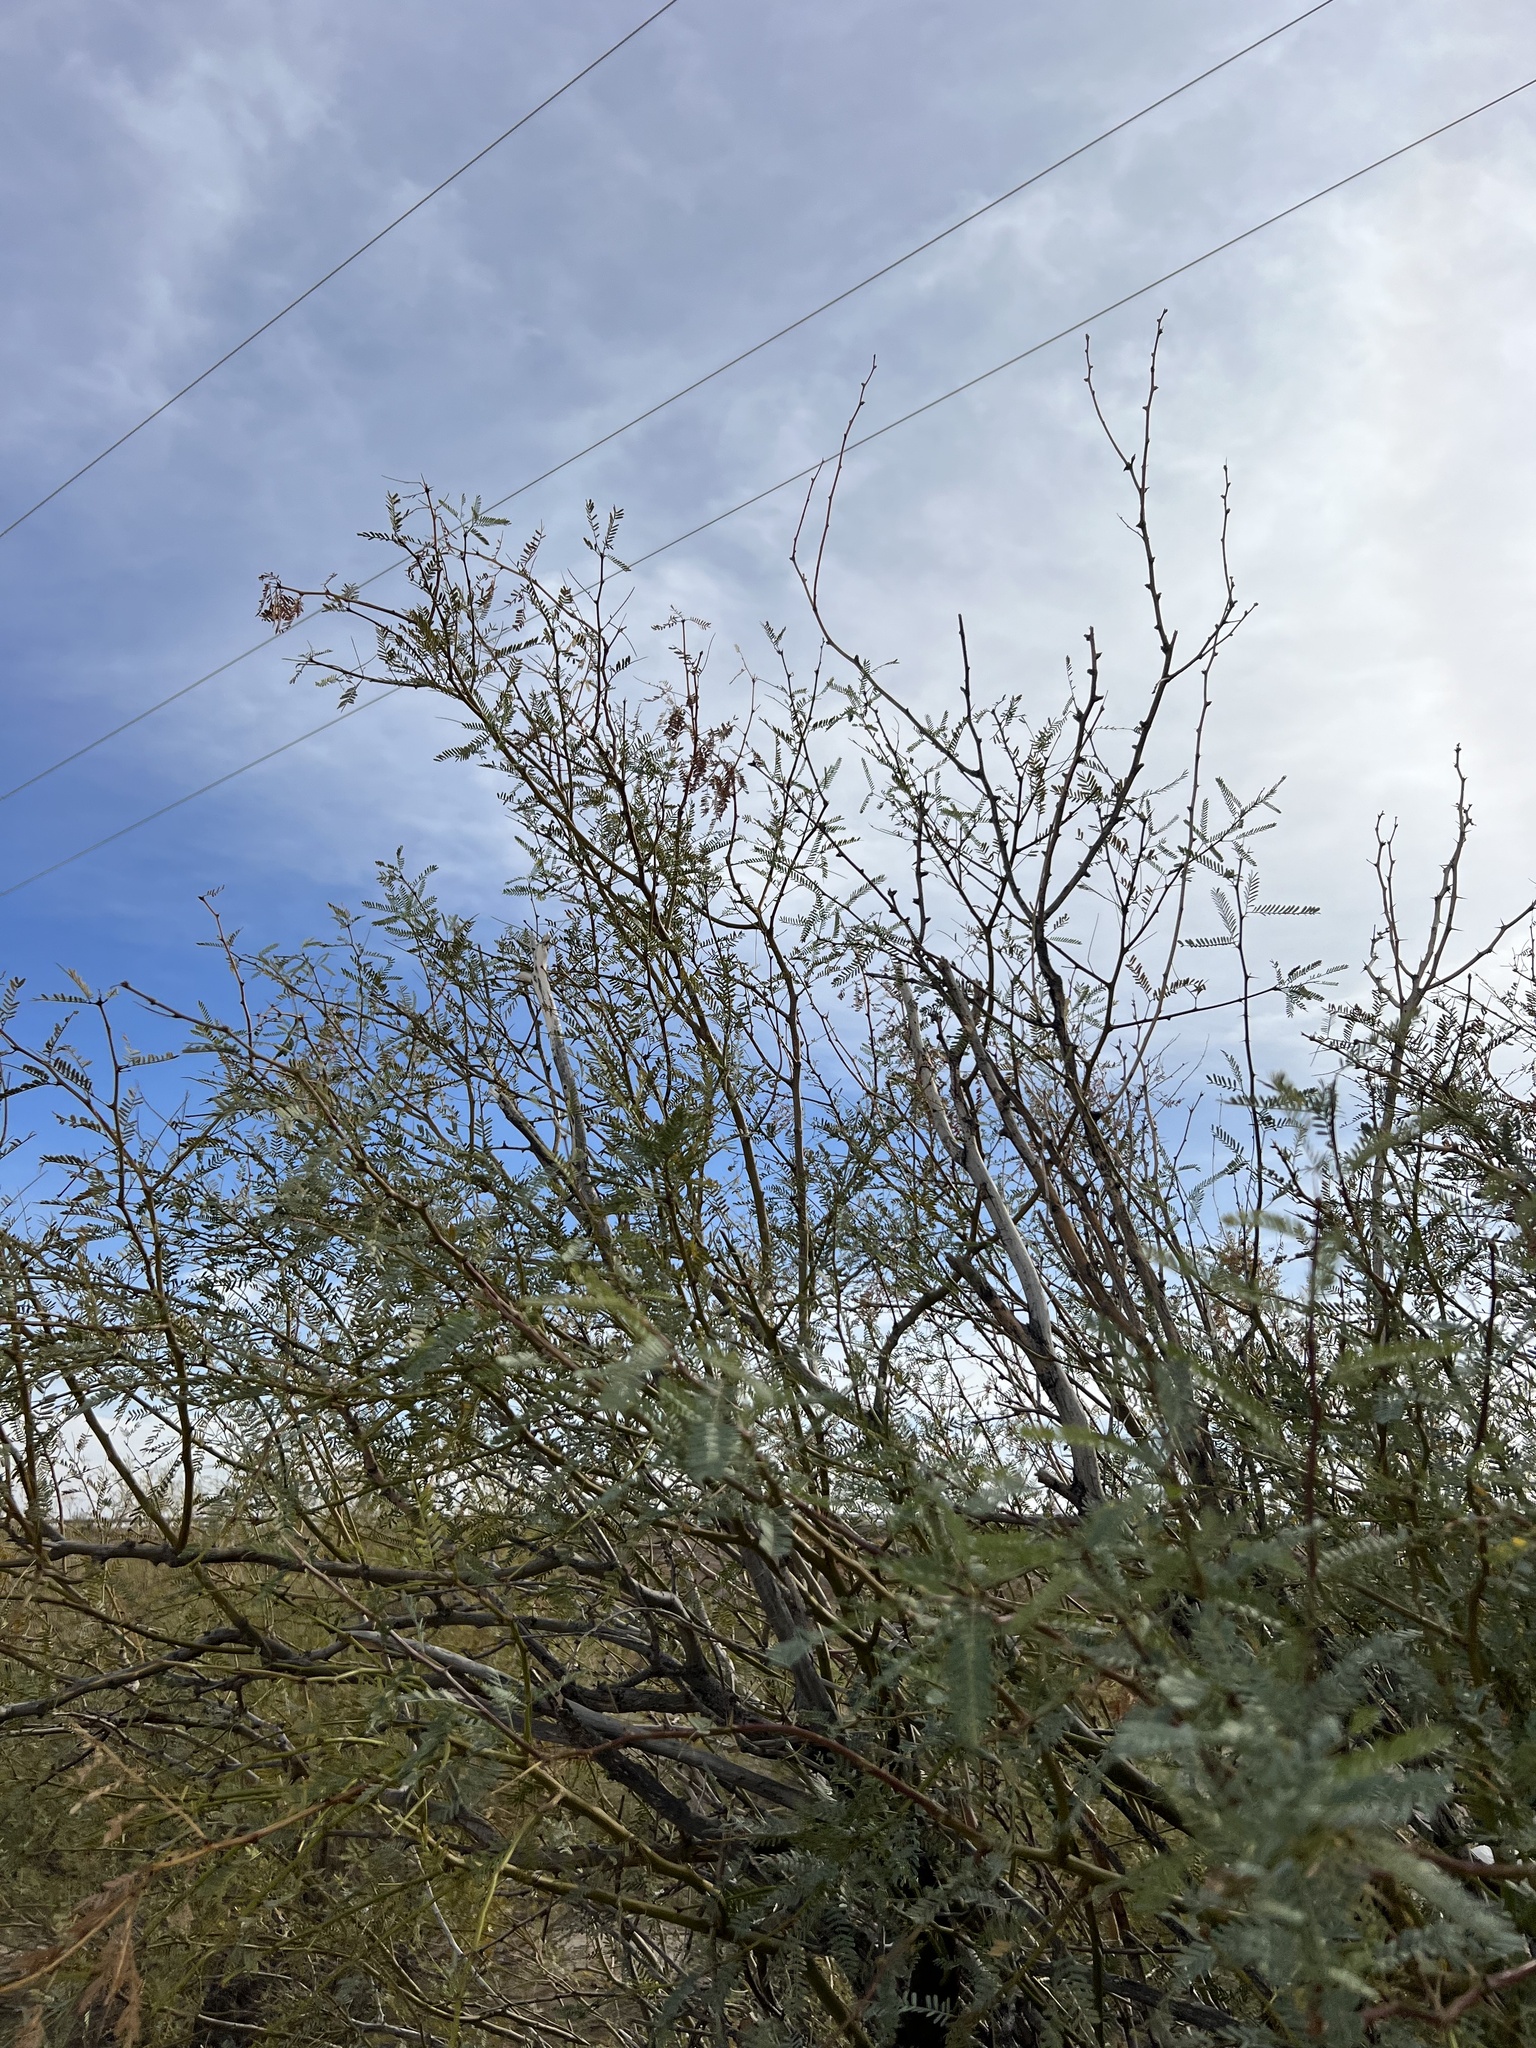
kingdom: Plantae
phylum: Tracheophyta
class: Magnoliopsida
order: Fabales
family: Fabaceae
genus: Prosopis
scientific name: Prosopis pubescens
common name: Screw-bean
